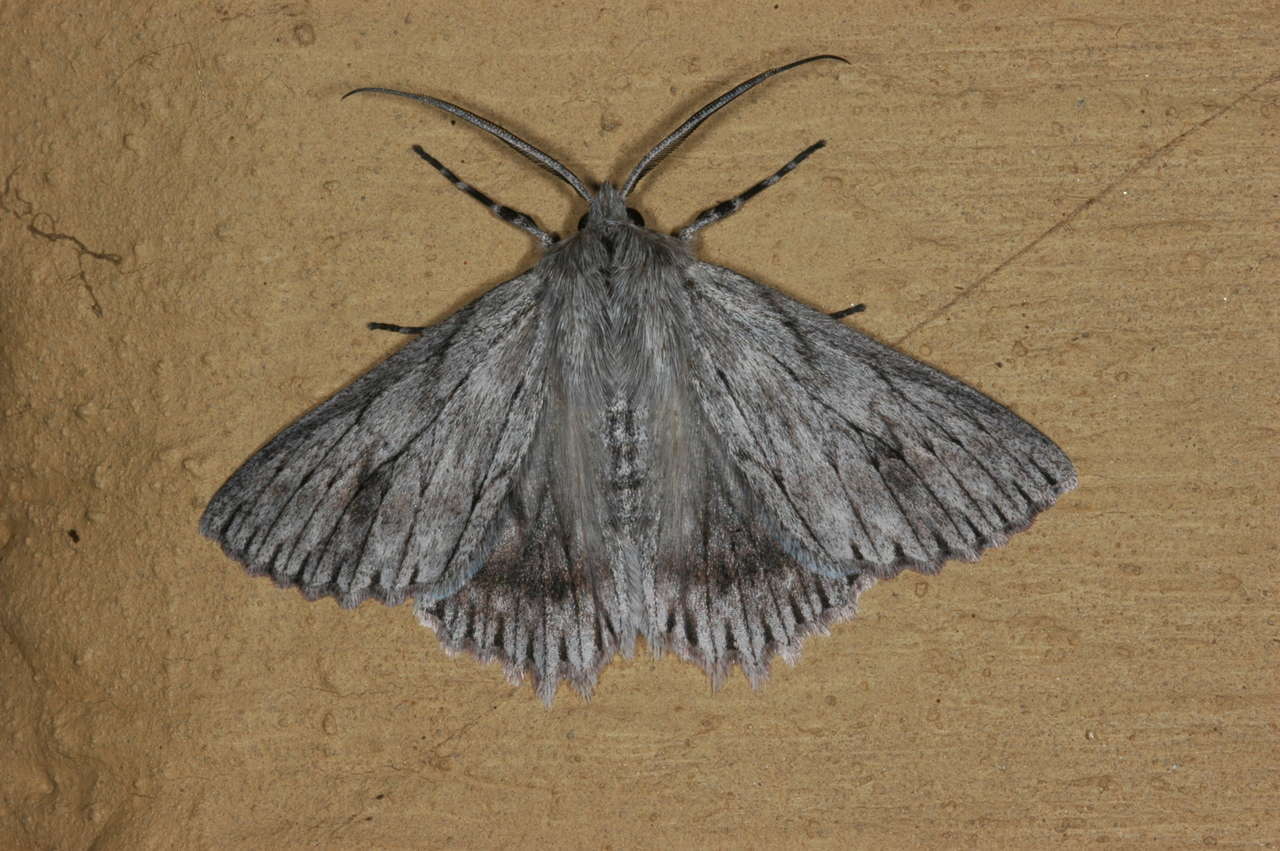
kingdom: Animalia
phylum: Arthropoda
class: Insecta
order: Lepidoptera
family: Geometridae
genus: Cyneoterpna
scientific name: Cyneoterpna wilsoni
